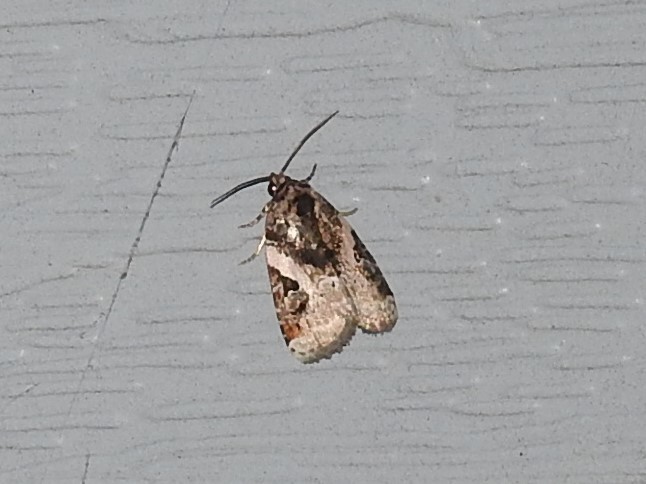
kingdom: Animalia
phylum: Arthropoda
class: Insecta
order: Lepidoptera
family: Noctuidae
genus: Pseudeustrotia
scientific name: Pseudeustrotia carneola
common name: Pink-barred lithacodia moth
